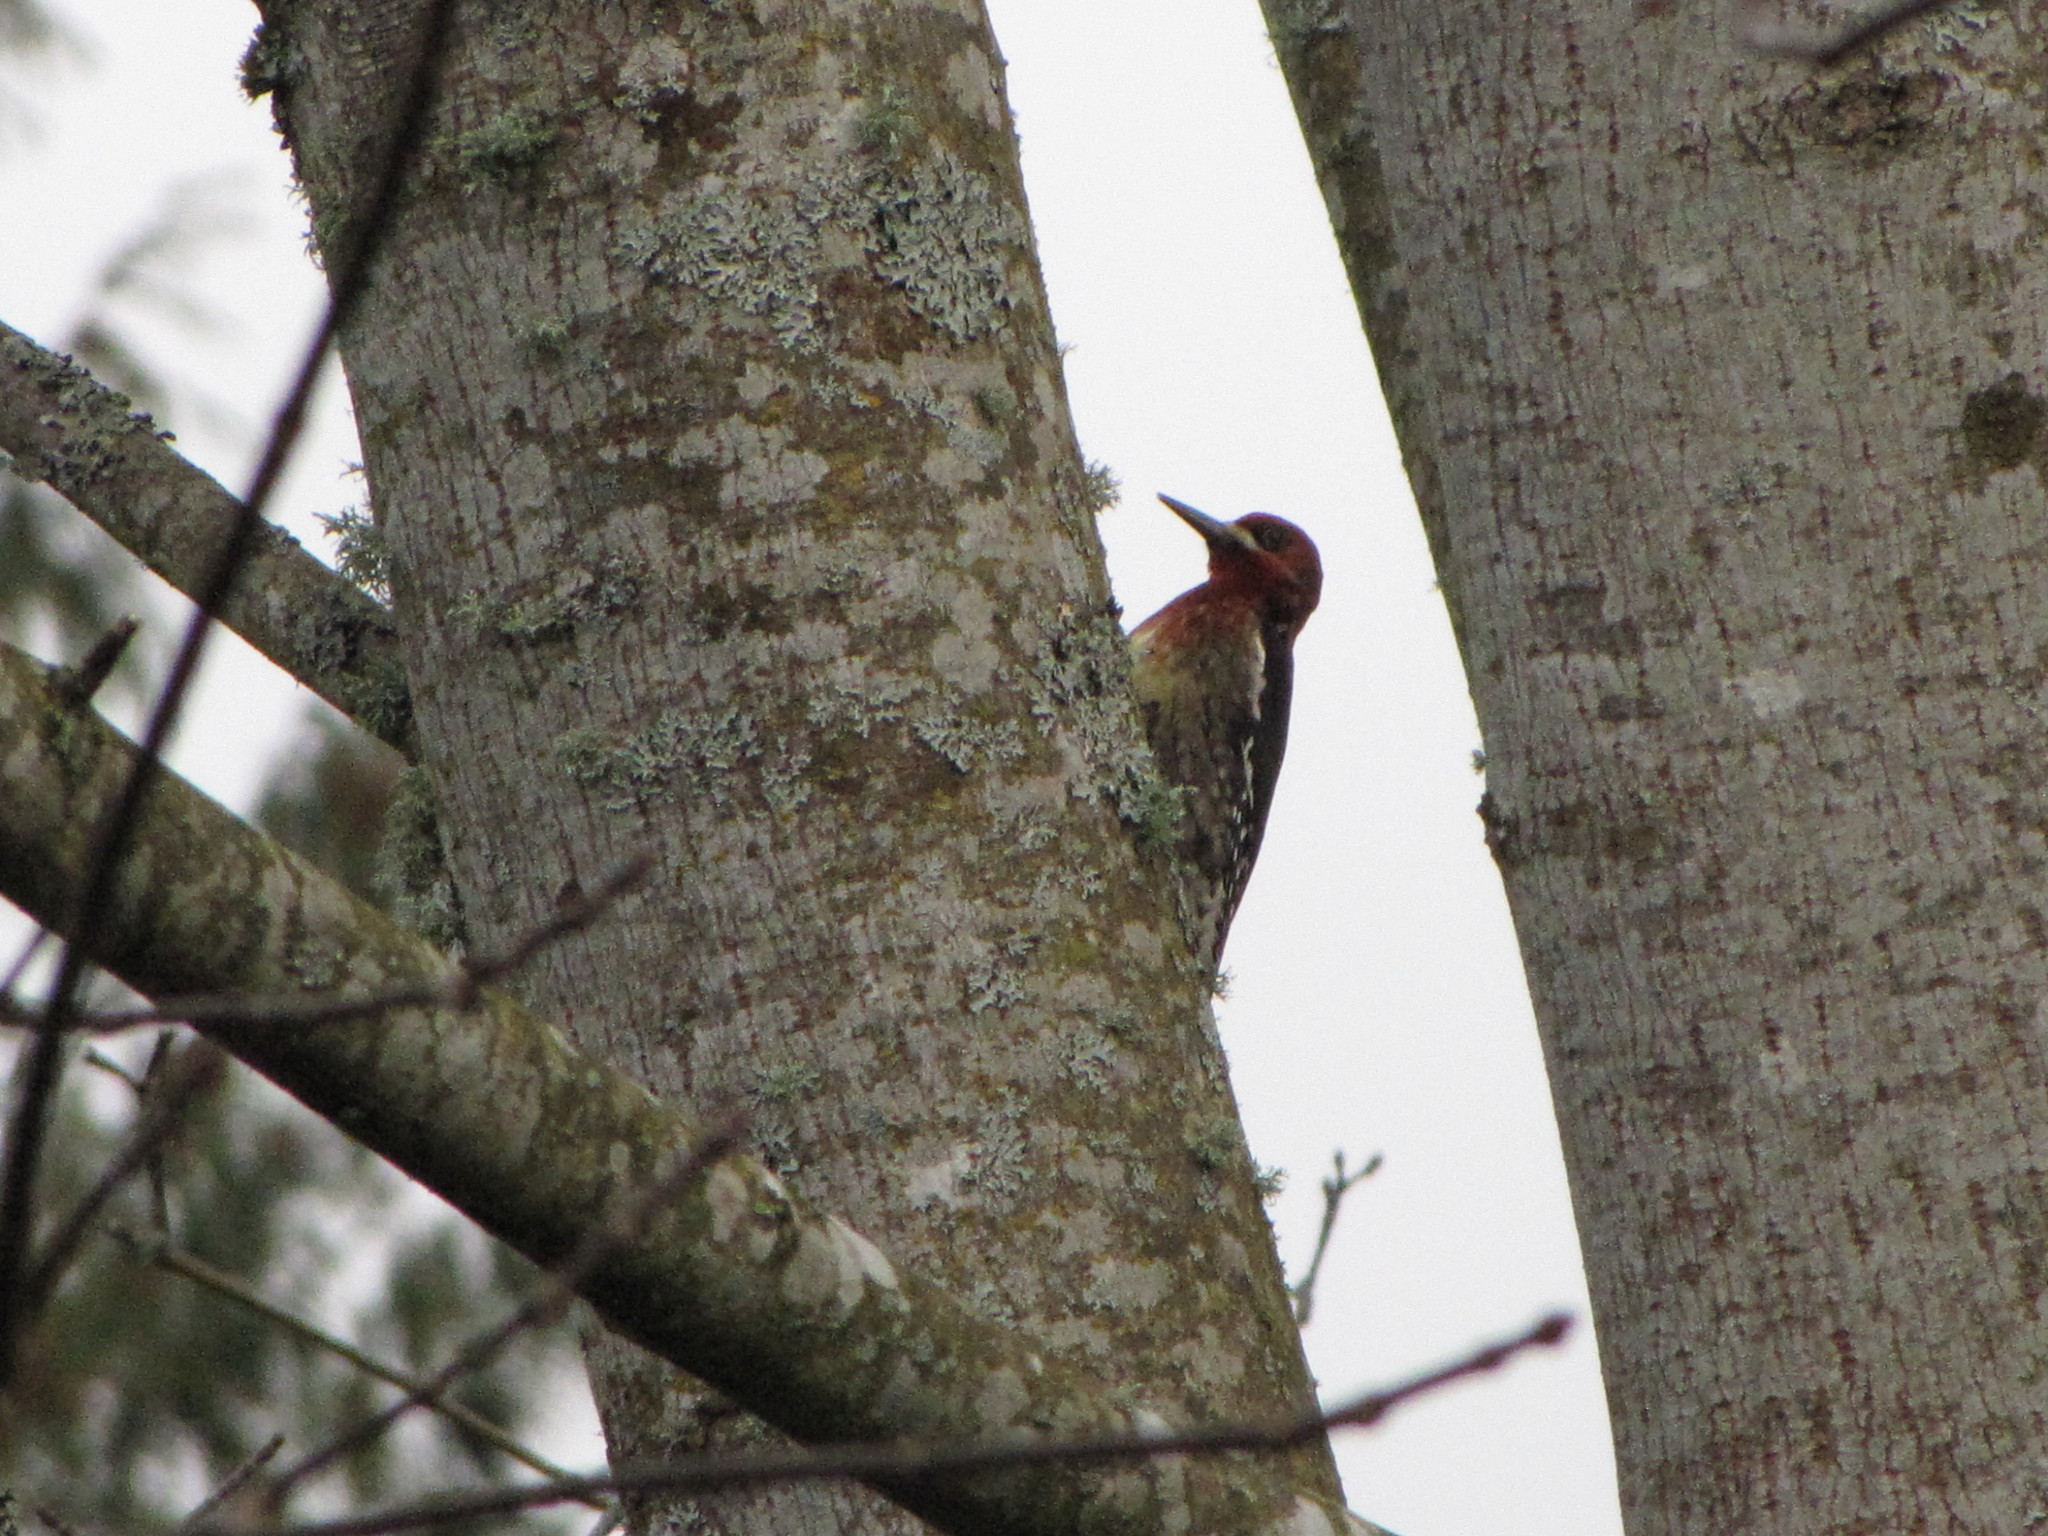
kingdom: Animalia
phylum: Chordata
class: Aves
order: Piciformes
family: Picidae
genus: Sphyrapicus
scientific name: Sphyrapicus ruber
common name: Red-breasted sapsucker
